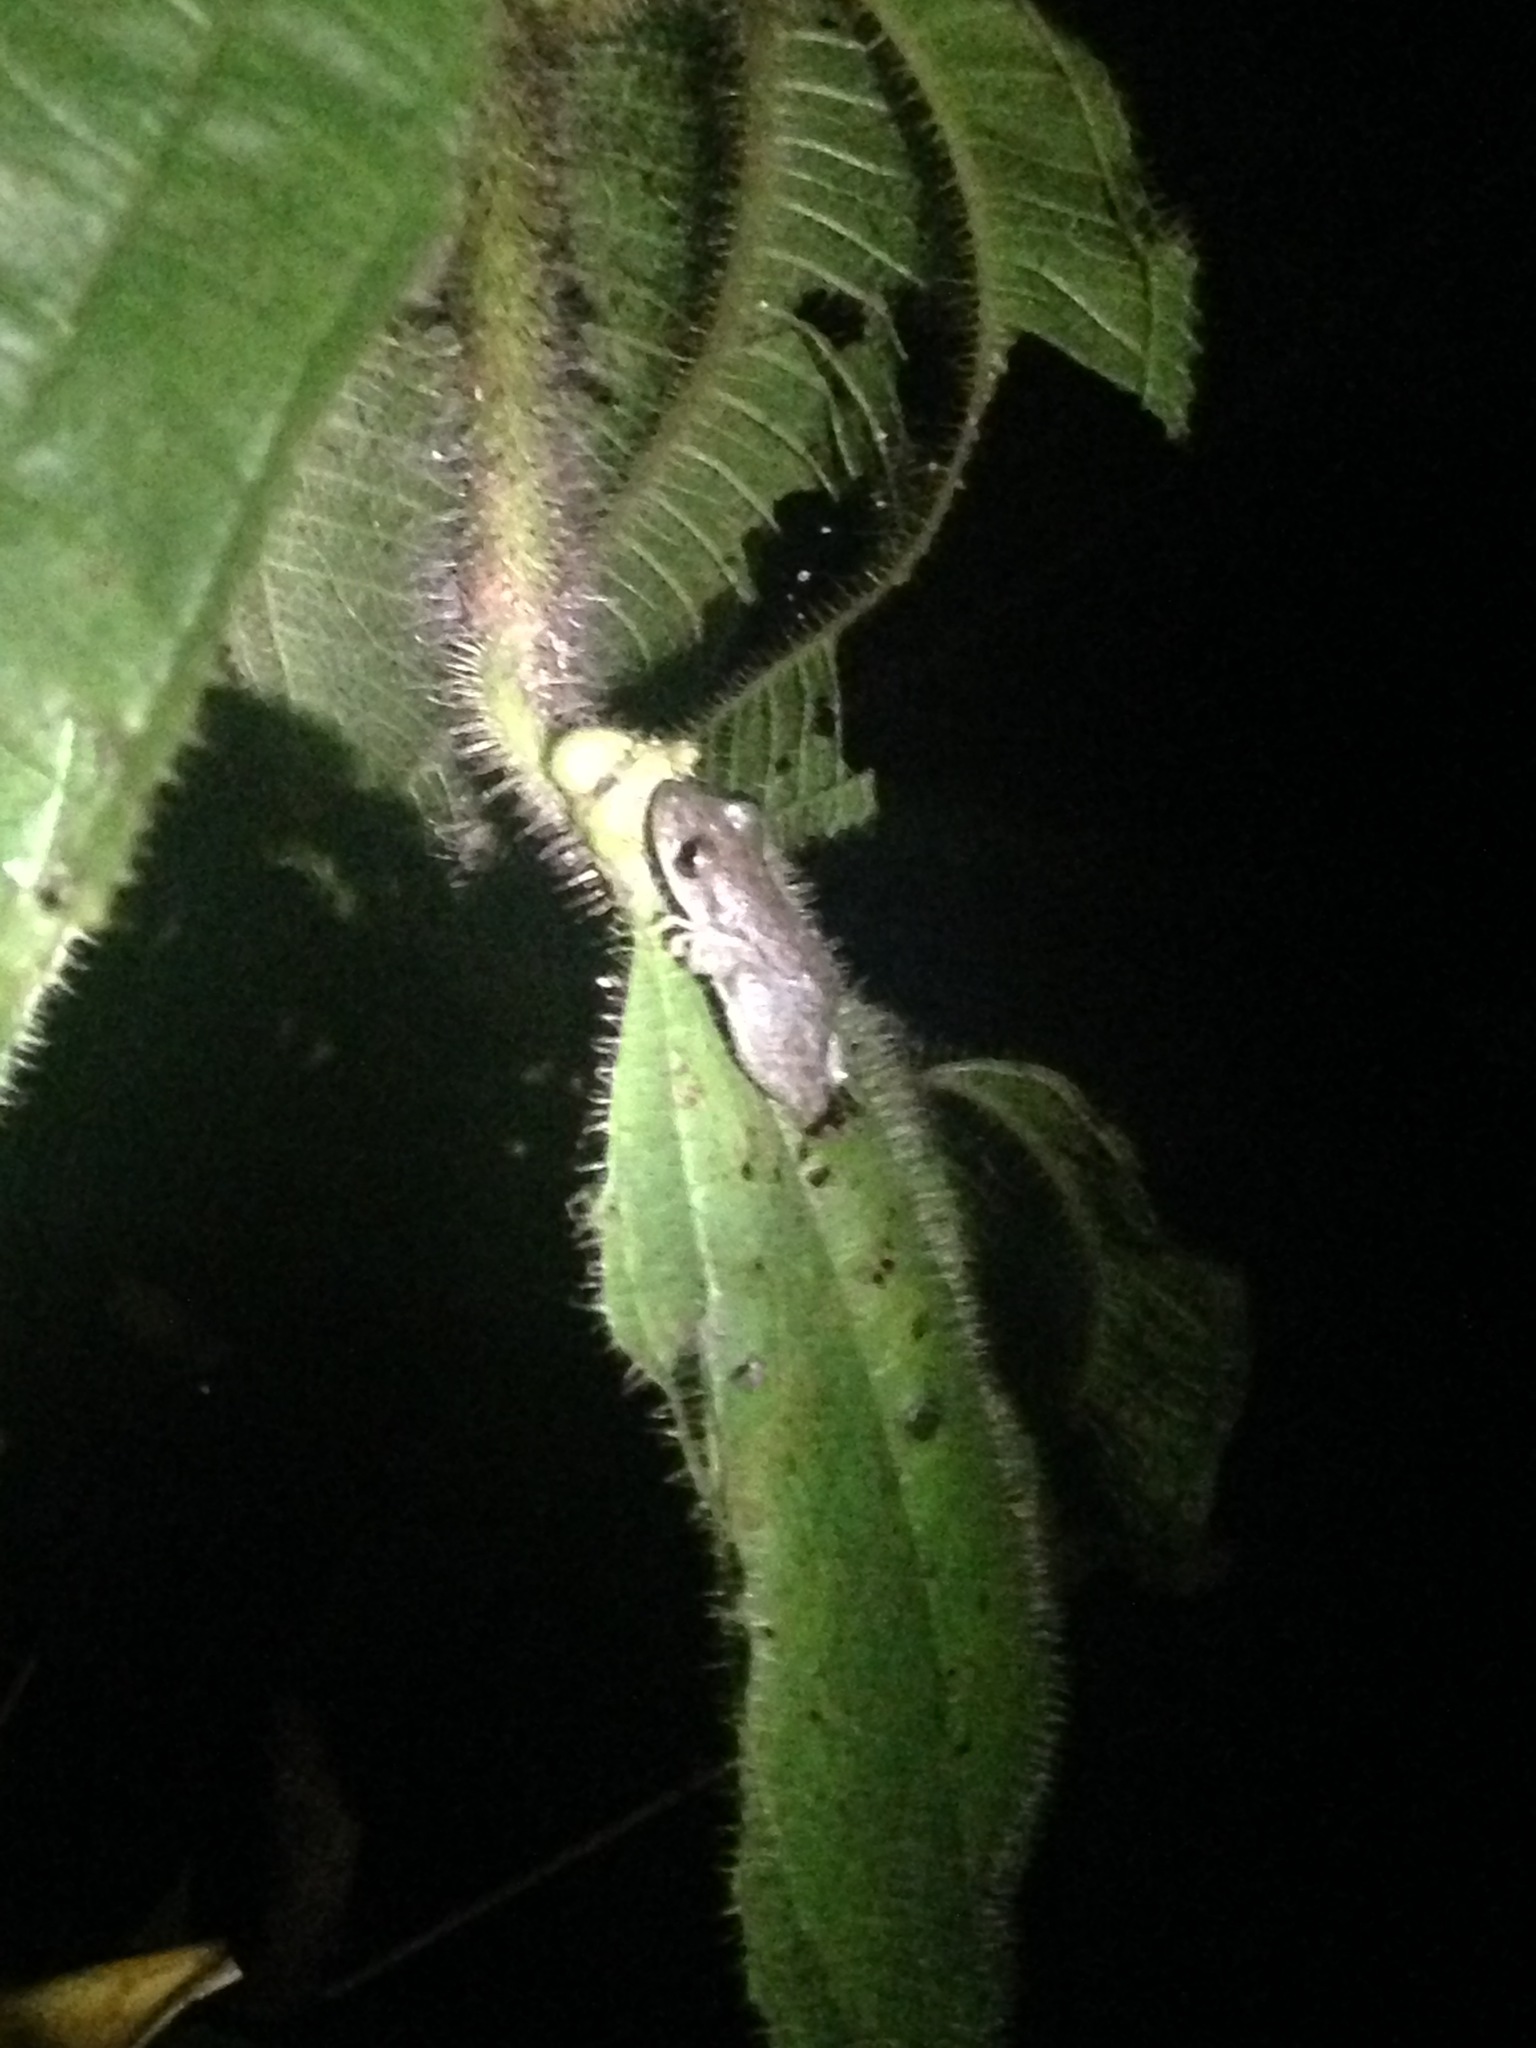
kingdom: Animalia
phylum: Chordata
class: Amphibia
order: Anura
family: Hylidae
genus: Scinax
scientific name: Scinax nasicus
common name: Lesser snouted treefrog
